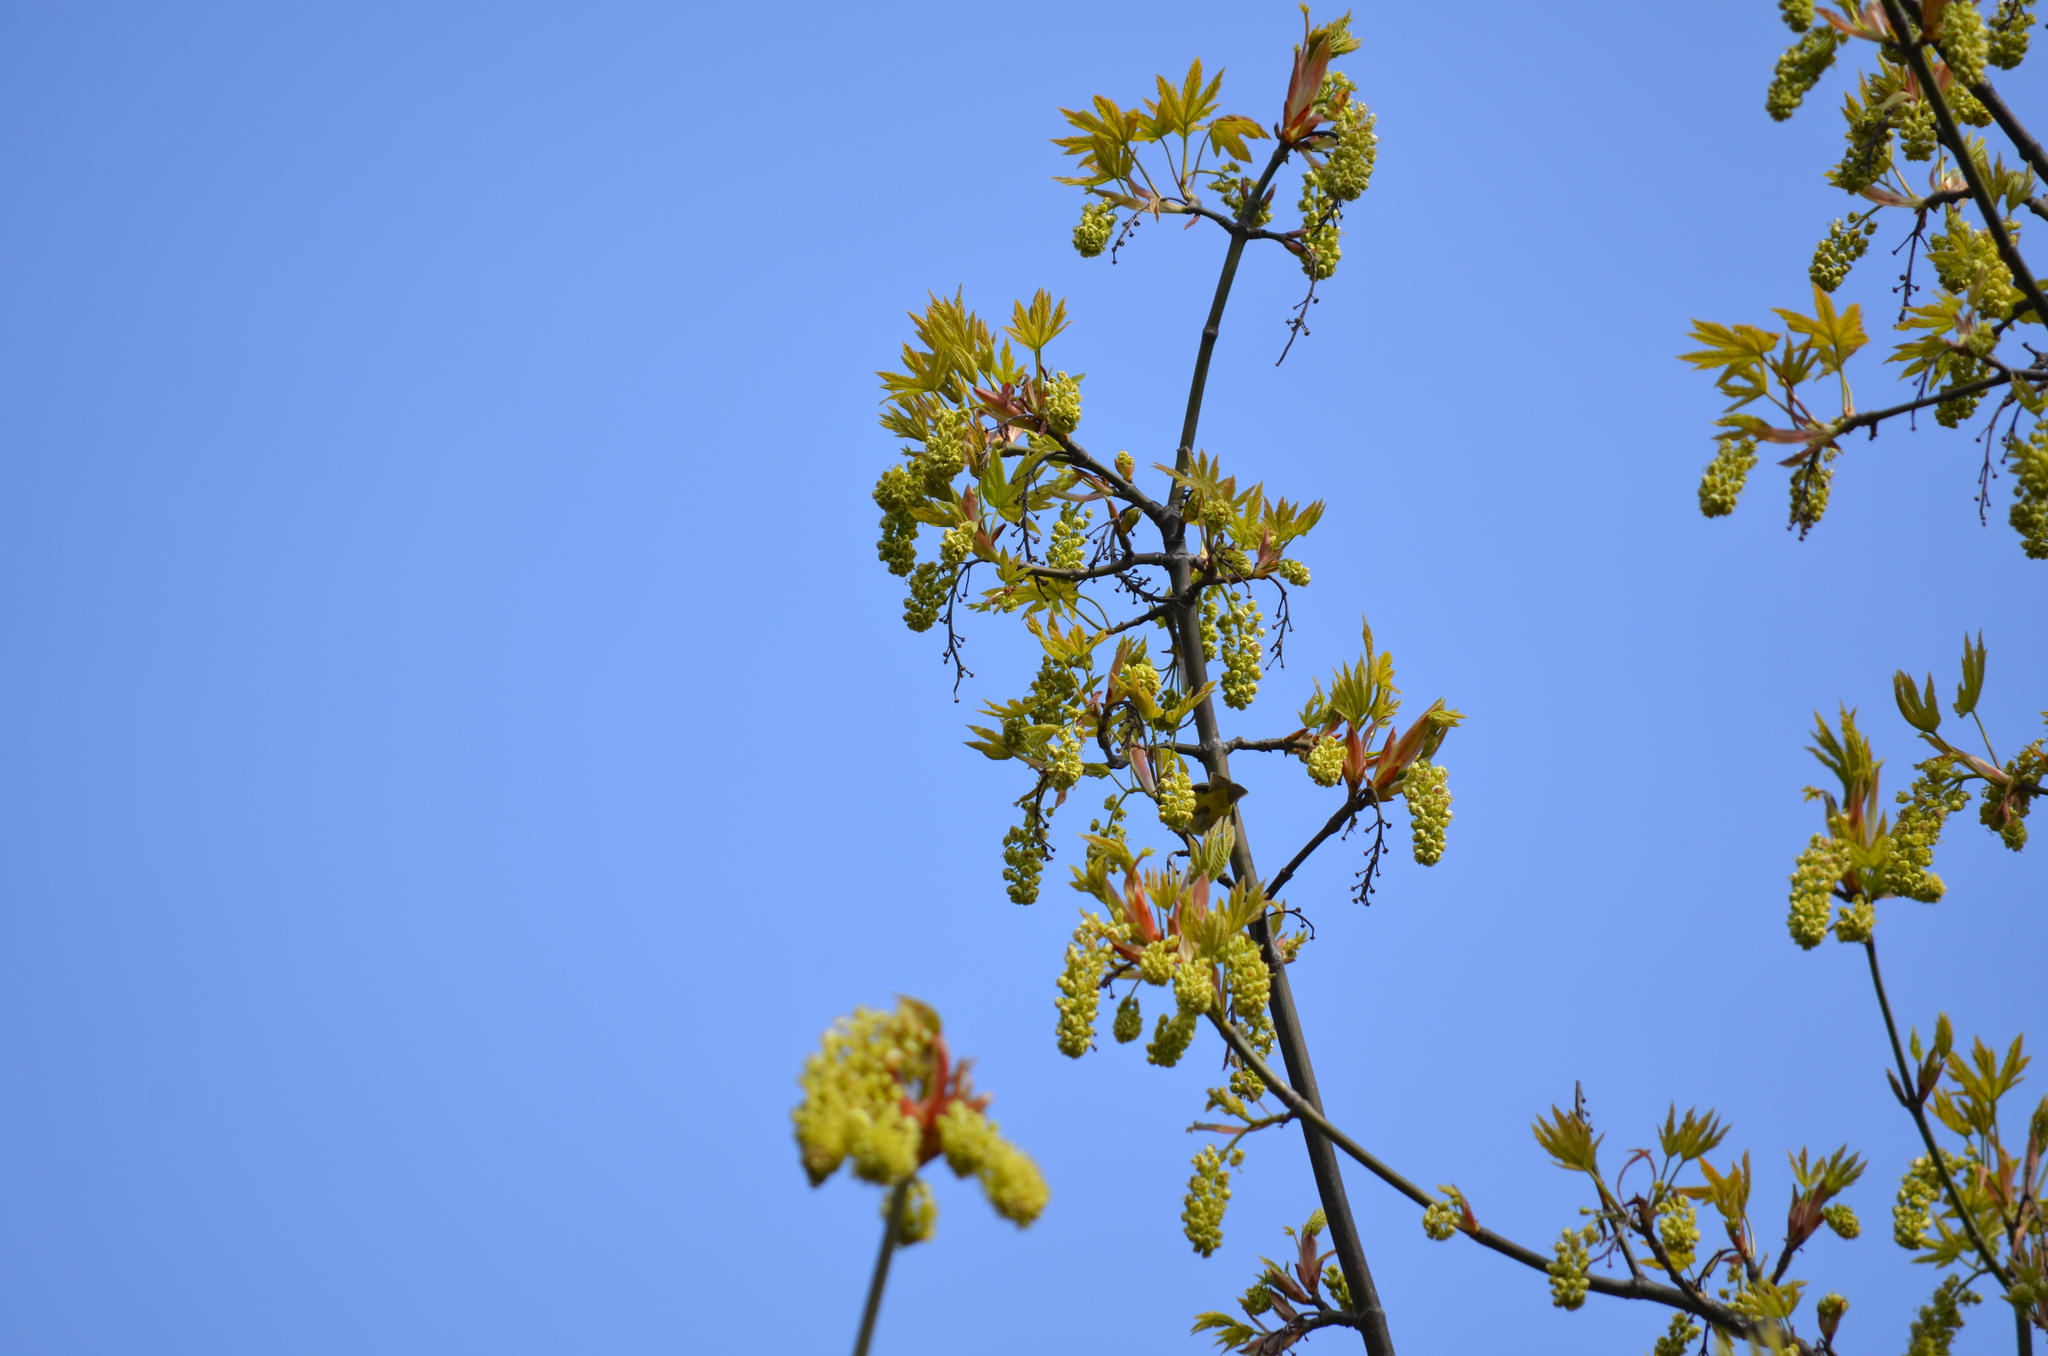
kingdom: Animalia
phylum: Chordata
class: Aves
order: Passeriformes
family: Parulidae
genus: Leiothlypis
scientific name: Leiothlypis celata
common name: Orange-crowned warbler
